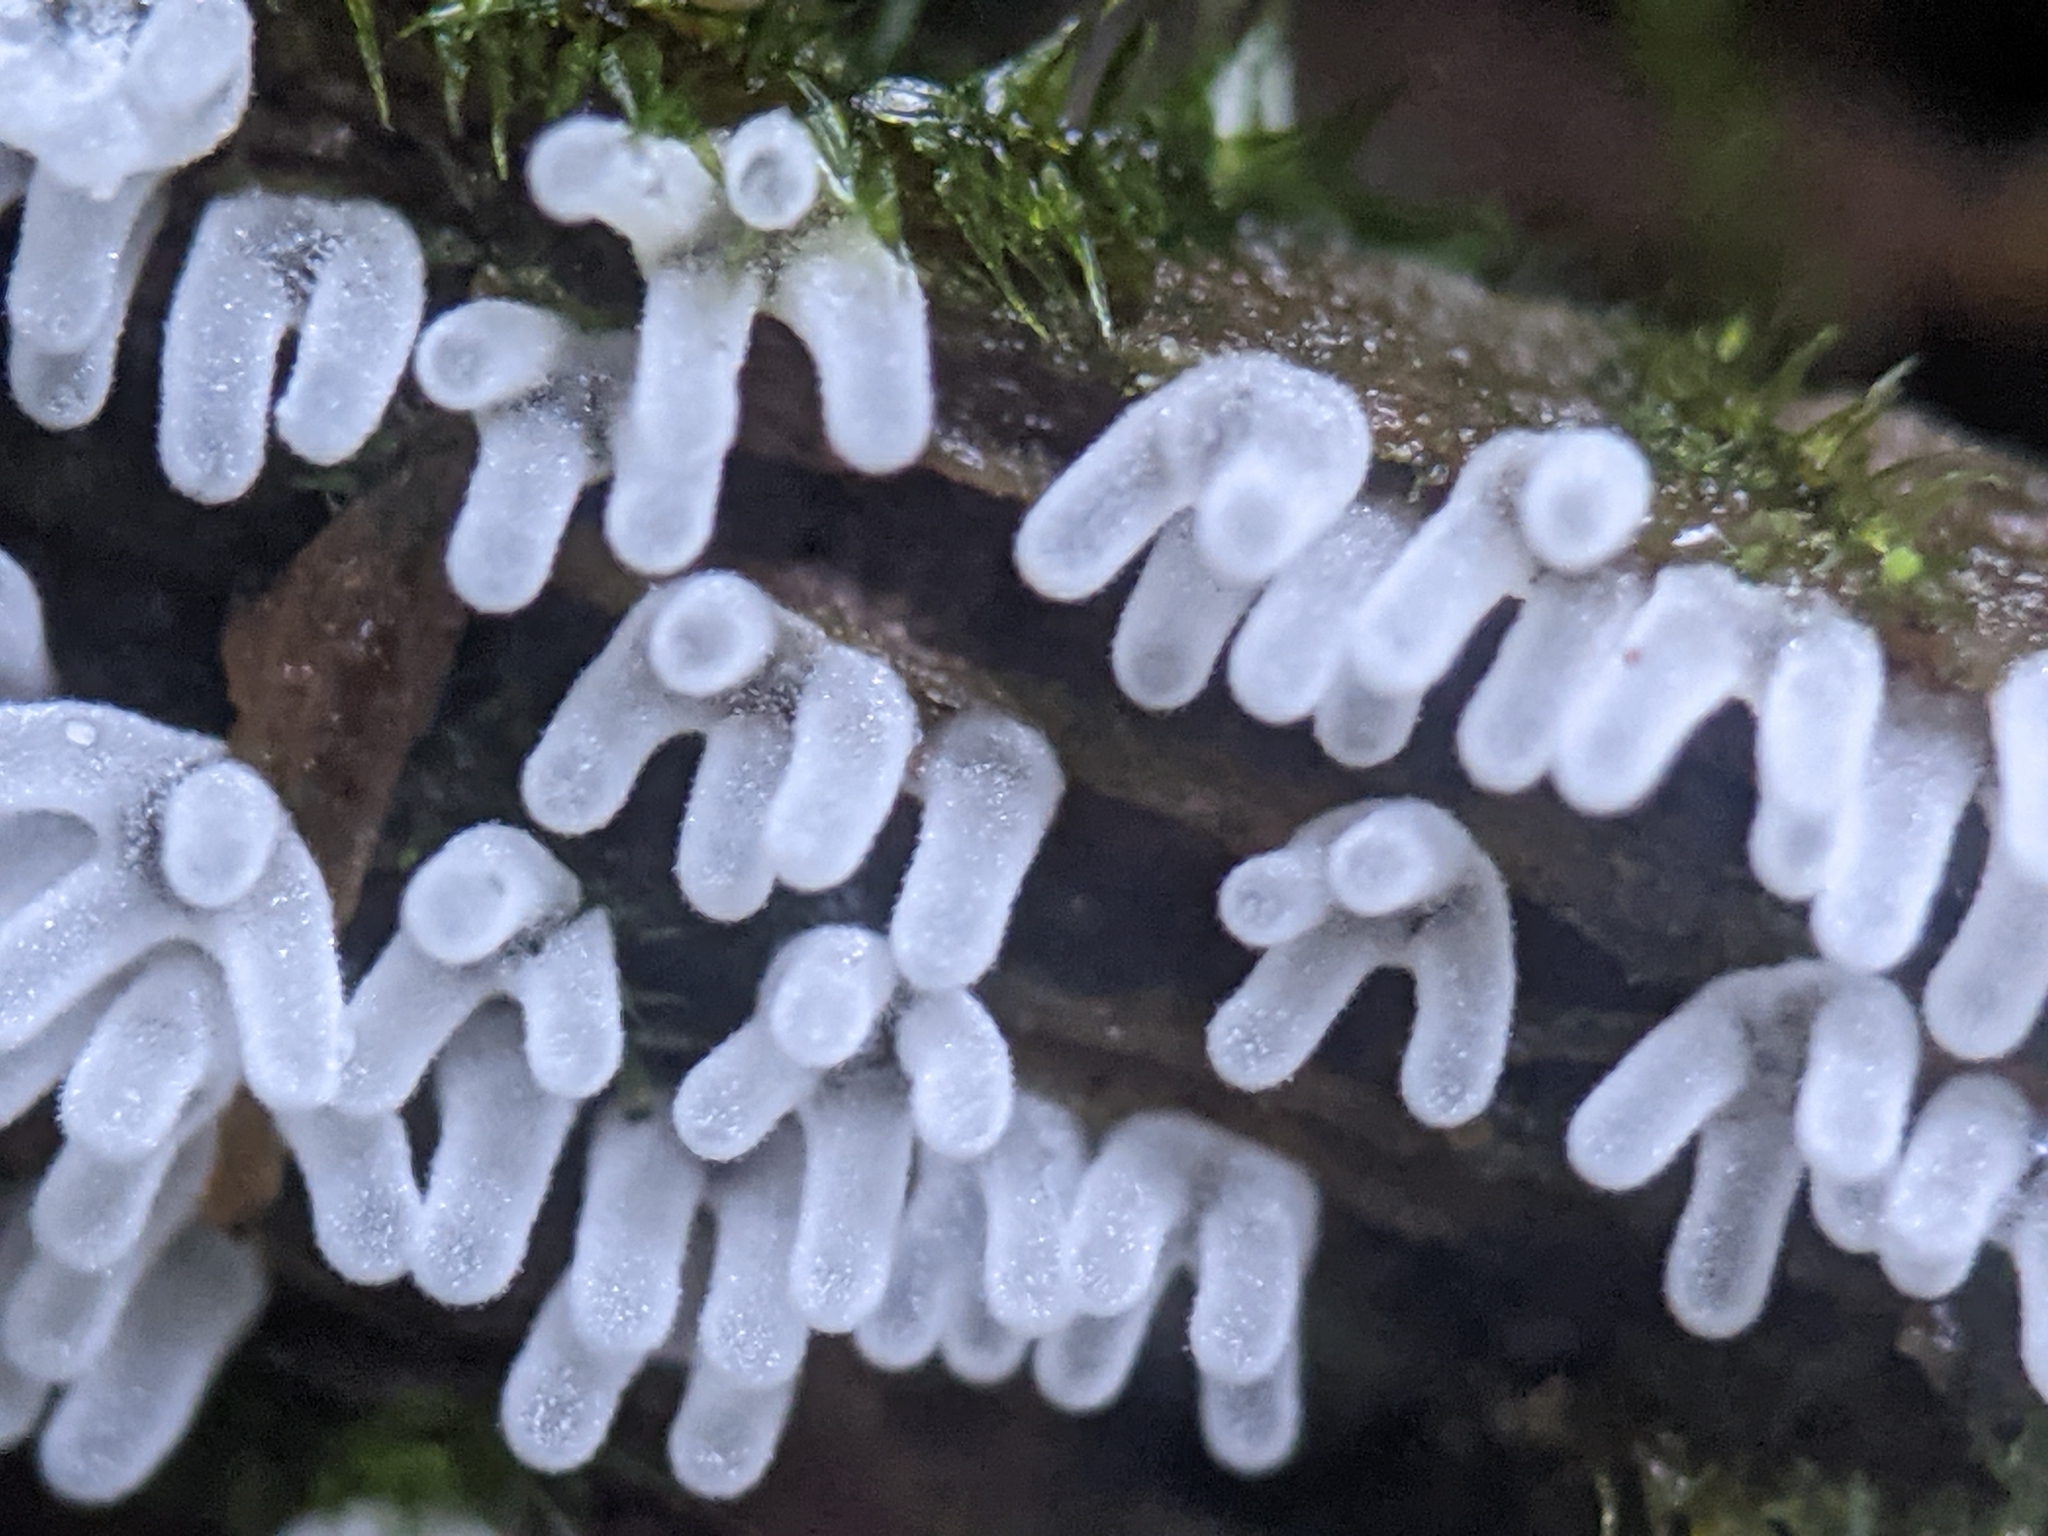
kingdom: Protozoa
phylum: Mycetozoa
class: Protosteliomycetes
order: Ceratiomyxales
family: Ceratiomyxaceae
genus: Ceratiomyxa
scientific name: Ceratiomyxa fruticulosa
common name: Honeycomb coral slime mold
